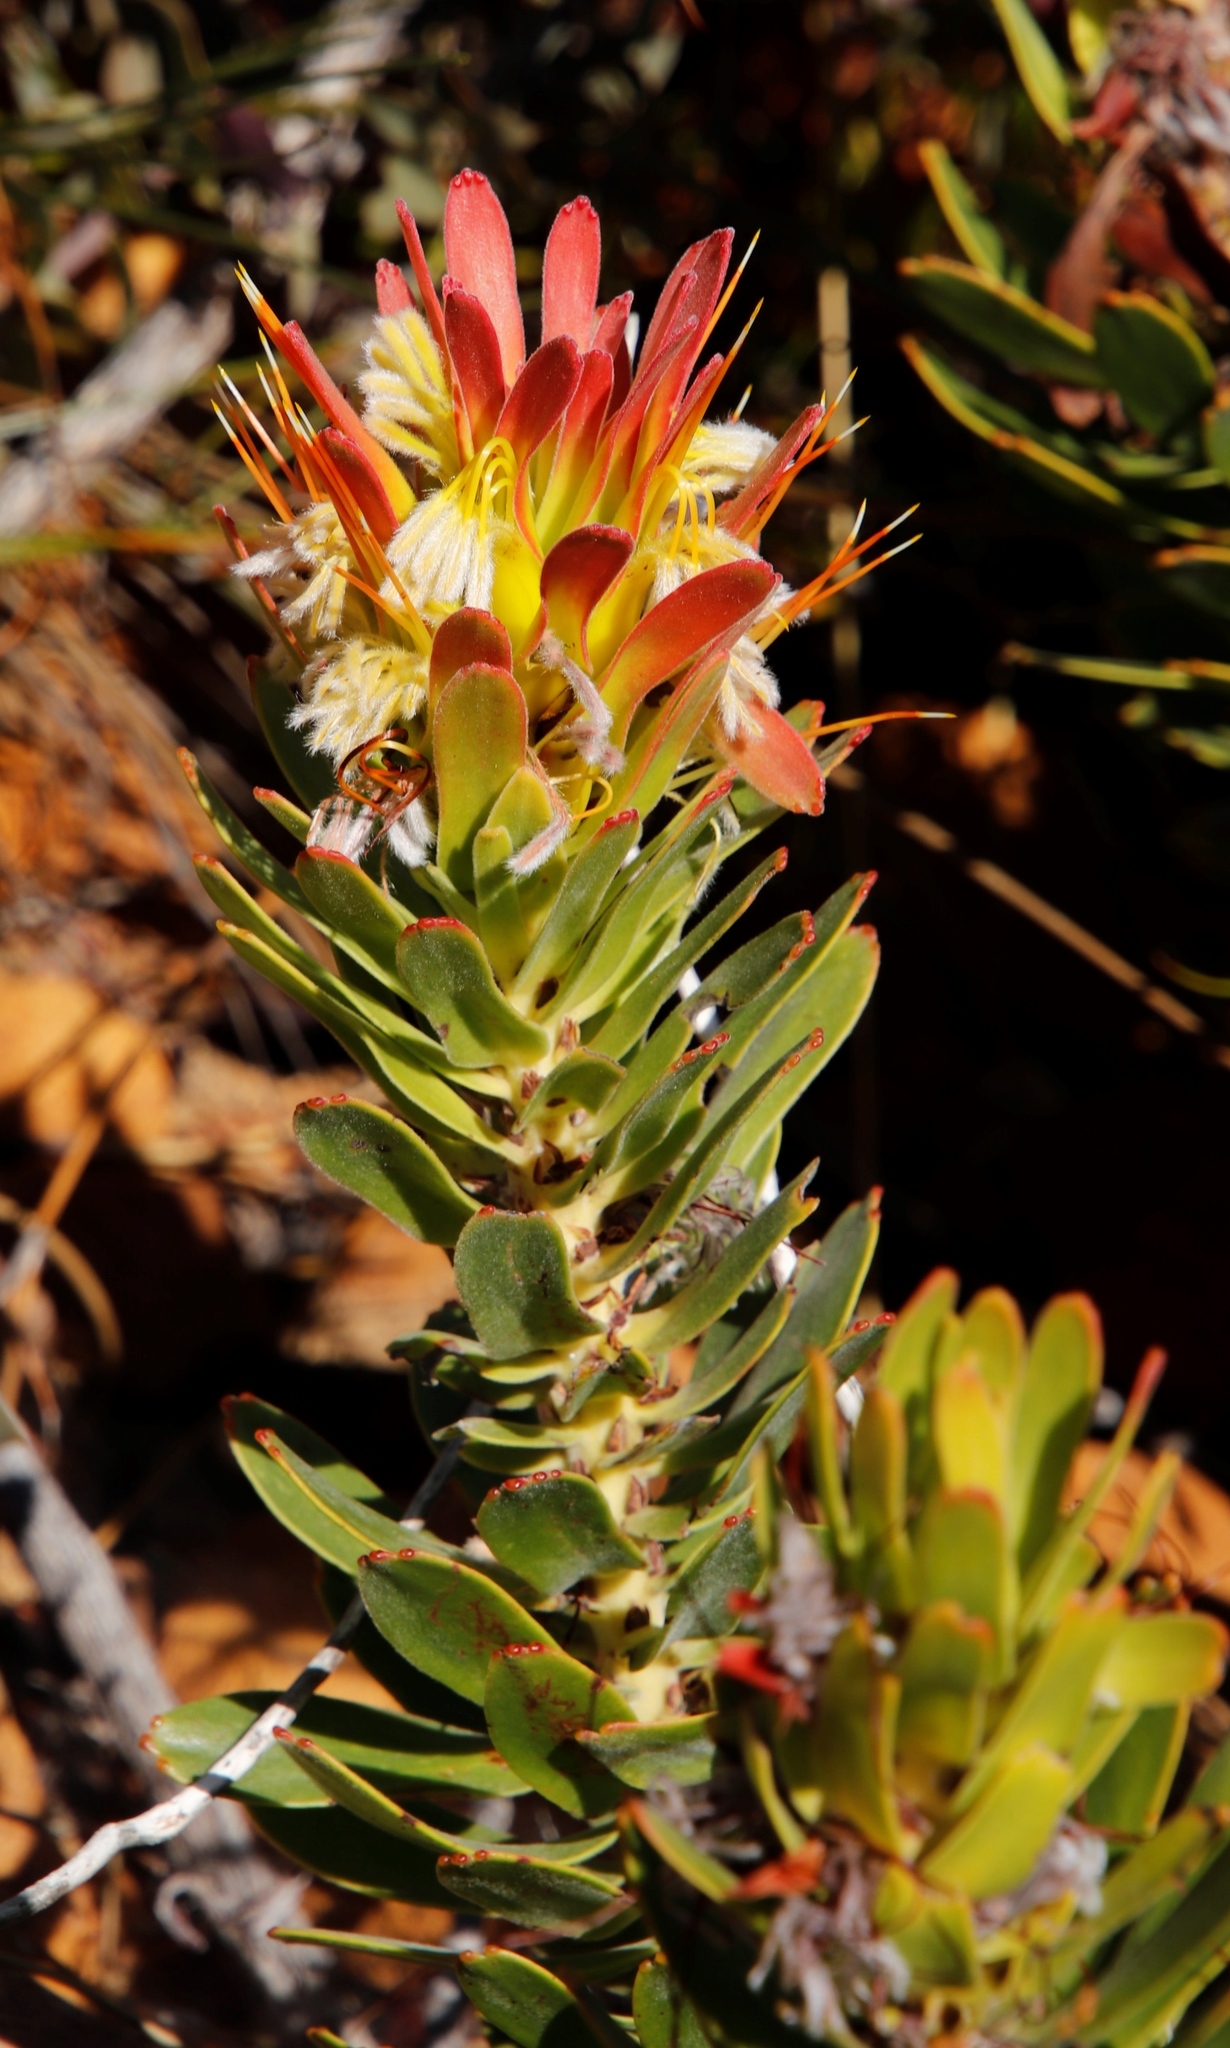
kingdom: Plantae
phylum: Tracheophyta
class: Magnoliopsida
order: Proteales
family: Proteaceae
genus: Mimetes
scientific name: Mimetes cucullatus
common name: Common pagoda
